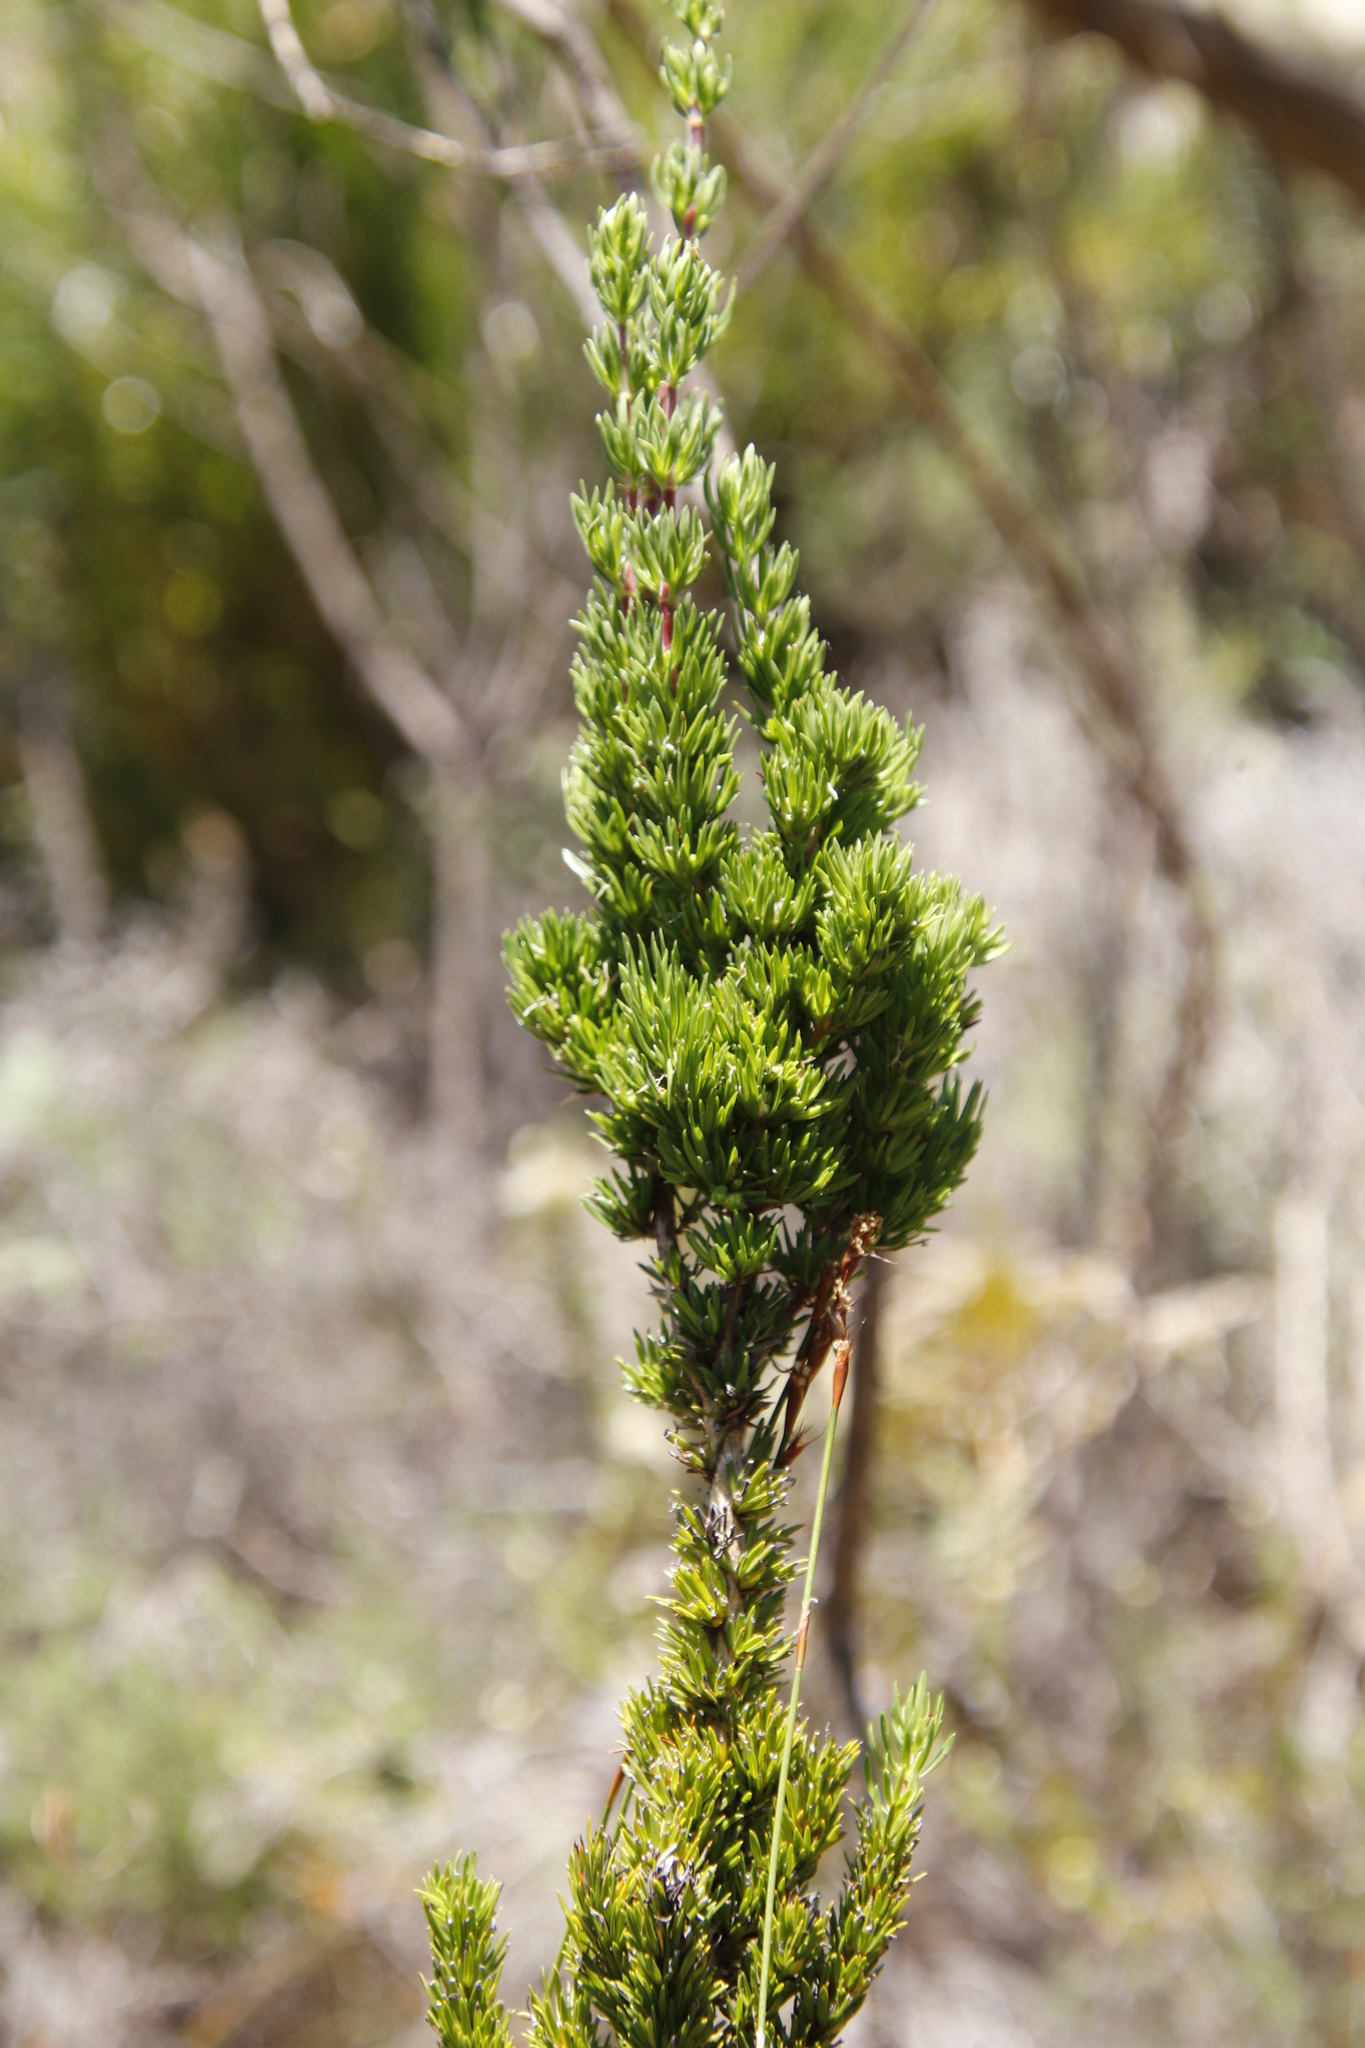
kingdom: Plantae
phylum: Tracheophyta
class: Magnoliopsida
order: Gentianales
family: Rubiaceae
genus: Anthospermum
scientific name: Anthospermum aethiopicum
